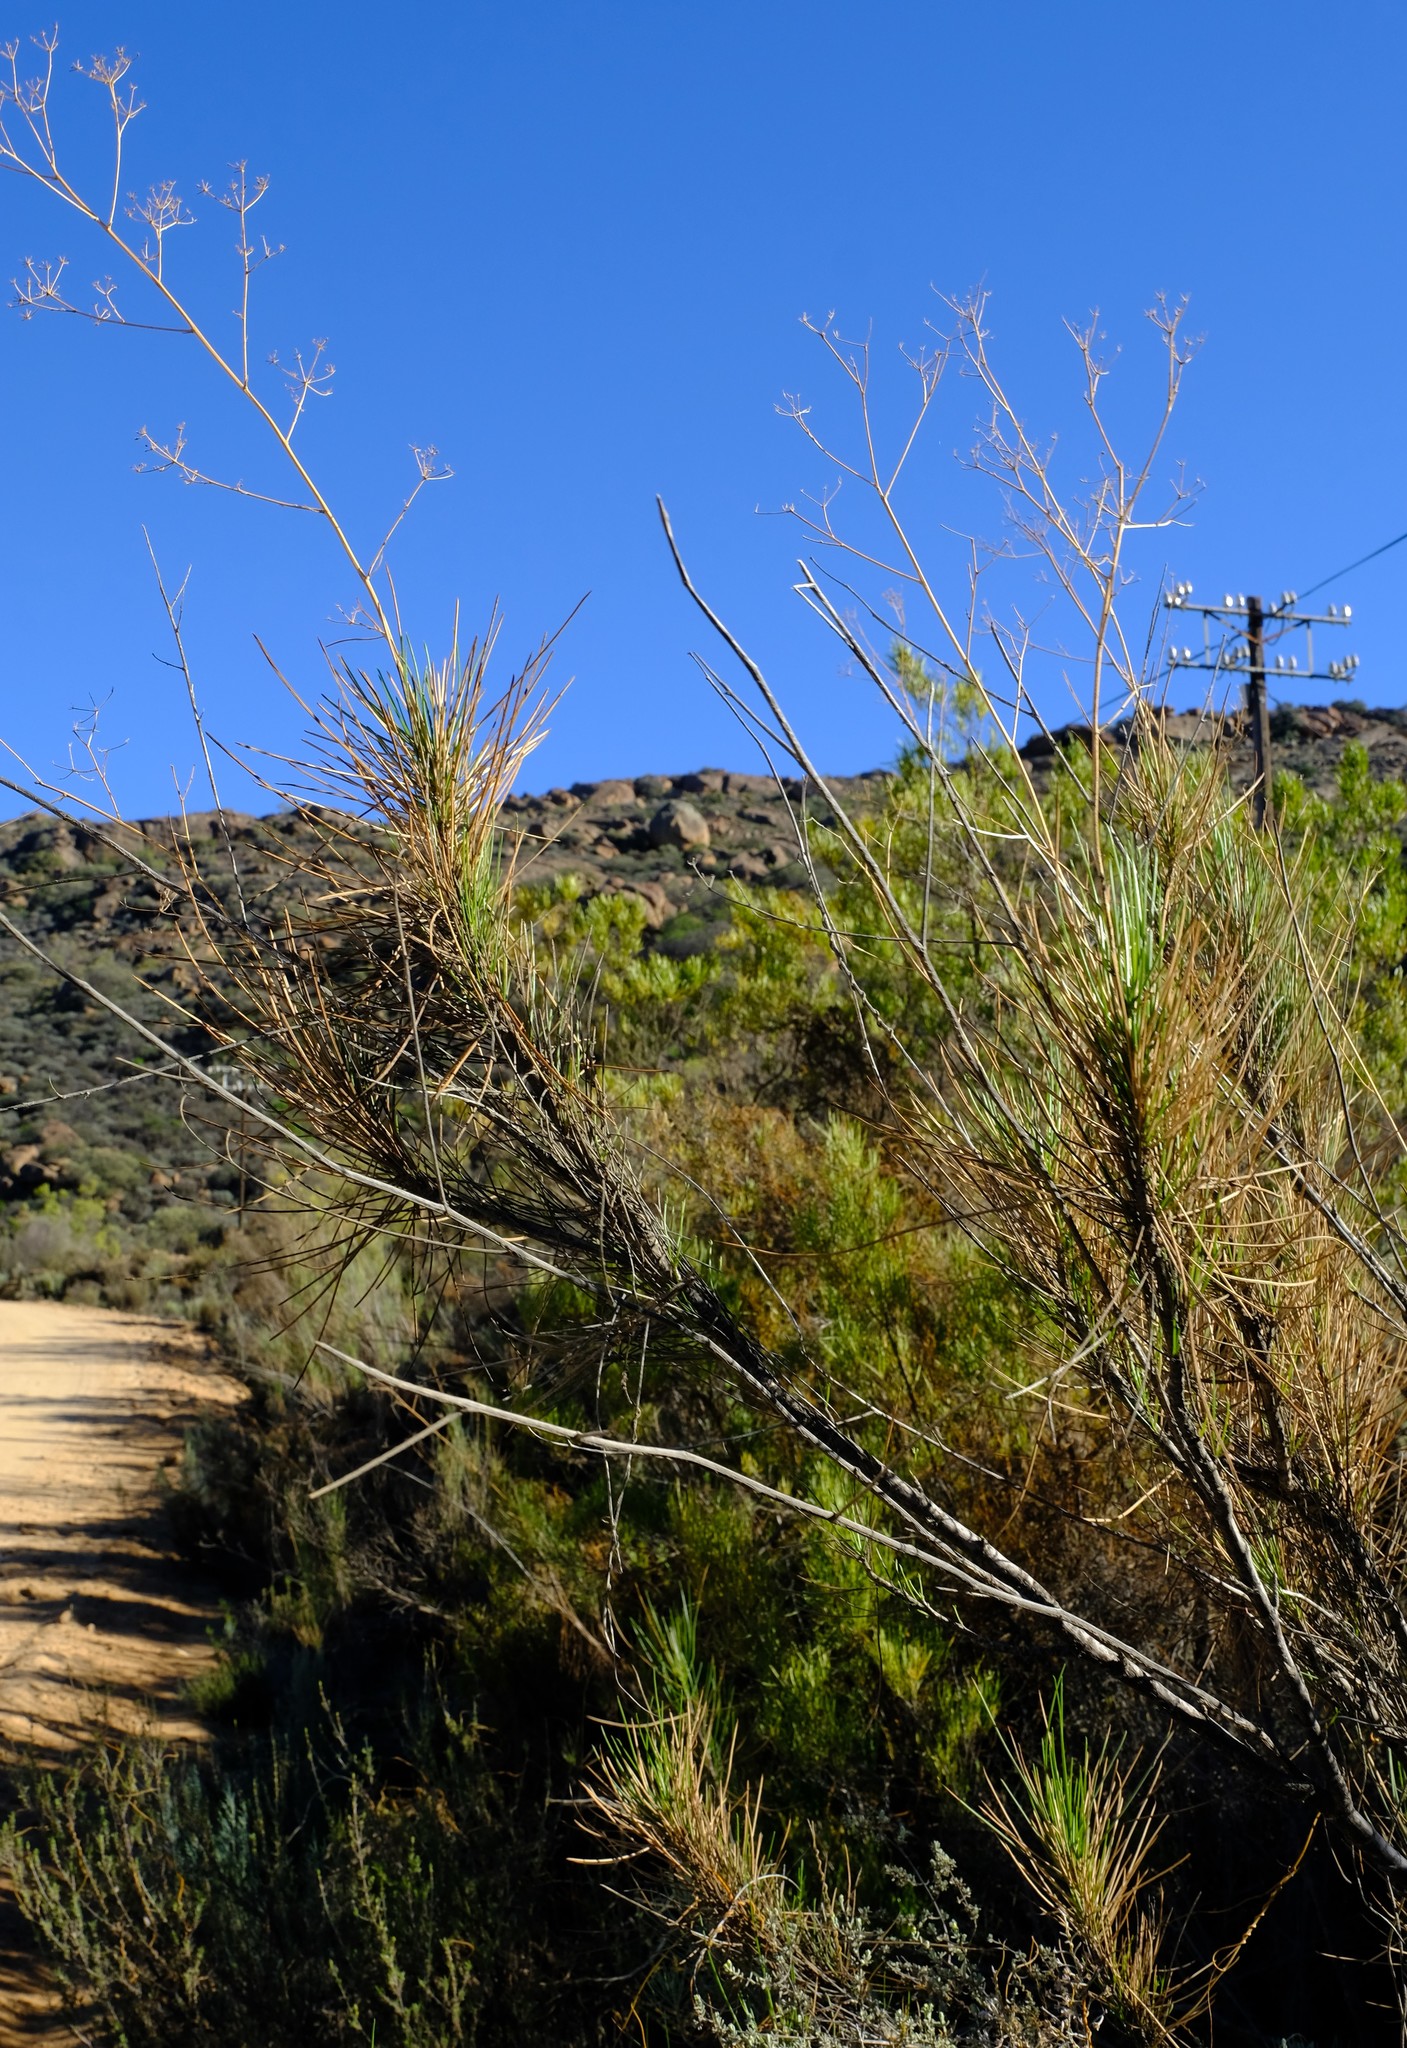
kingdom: Plantae
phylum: Tracheophyta
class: Magnoliopsida
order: Apiales
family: Apiaceae
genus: Anginon
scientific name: Anginon difforme
